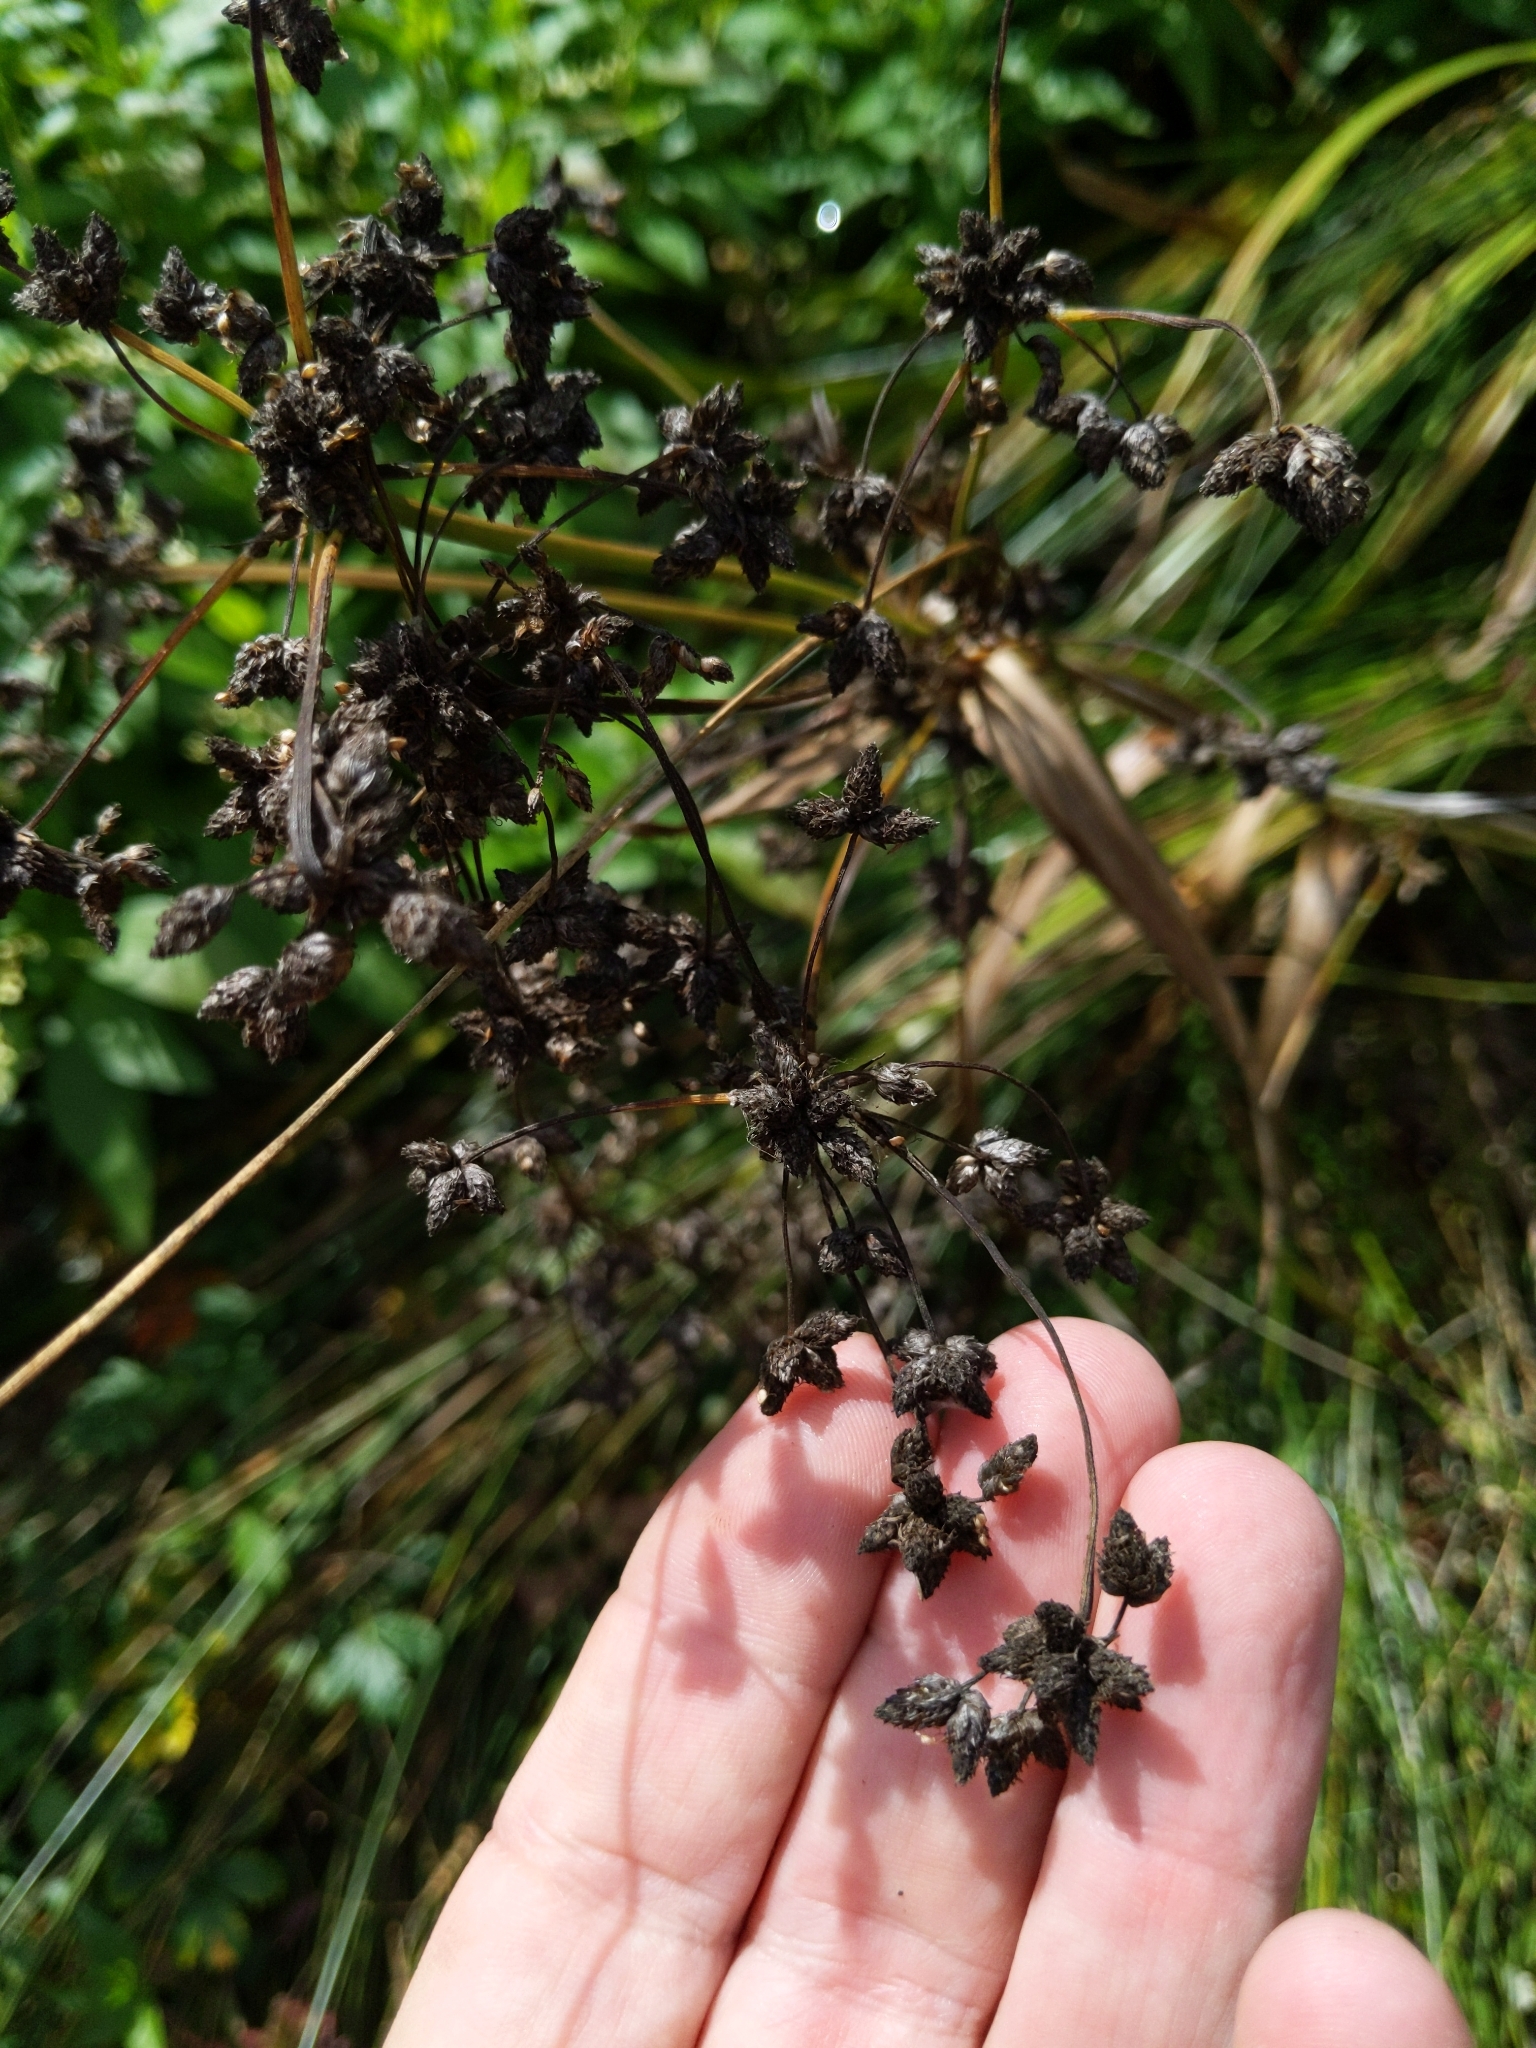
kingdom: Plantae
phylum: Tracheophyta
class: Liliopsida
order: Poales
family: Cyperaceae
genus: Scirpus
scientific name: Scirpus microcarpus
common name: Panicled bulrush
